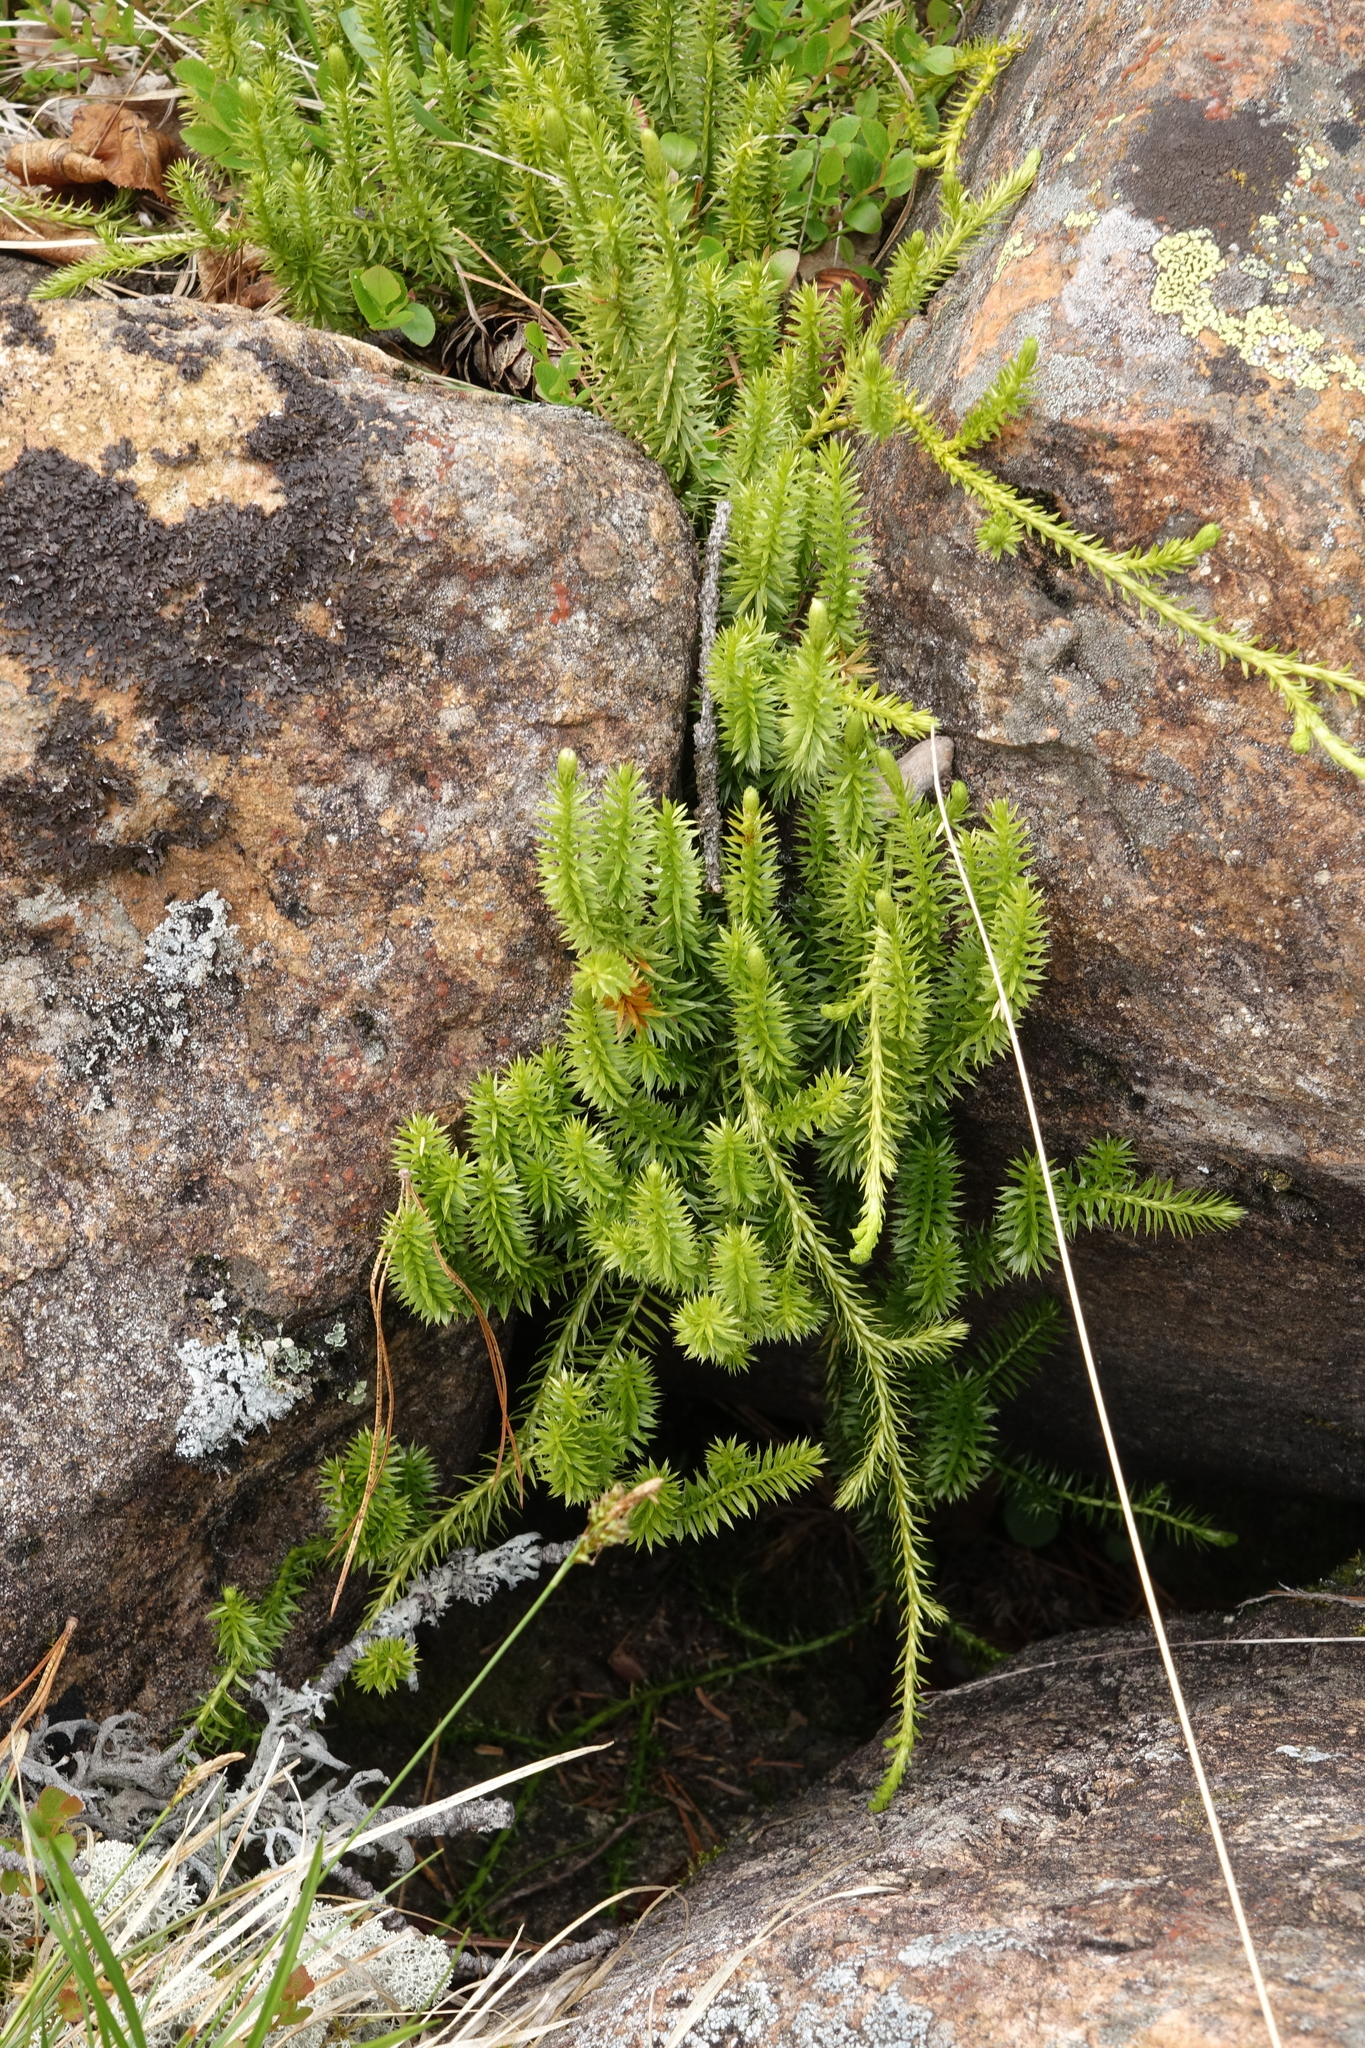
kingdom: Plantae
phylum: Tracheophyta
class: Lycopodiopsida
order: Lycopodiales
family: Lycopodiaceae
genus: Spinulum
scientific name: Spinulum annotinum
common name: Interrupted club-moss
